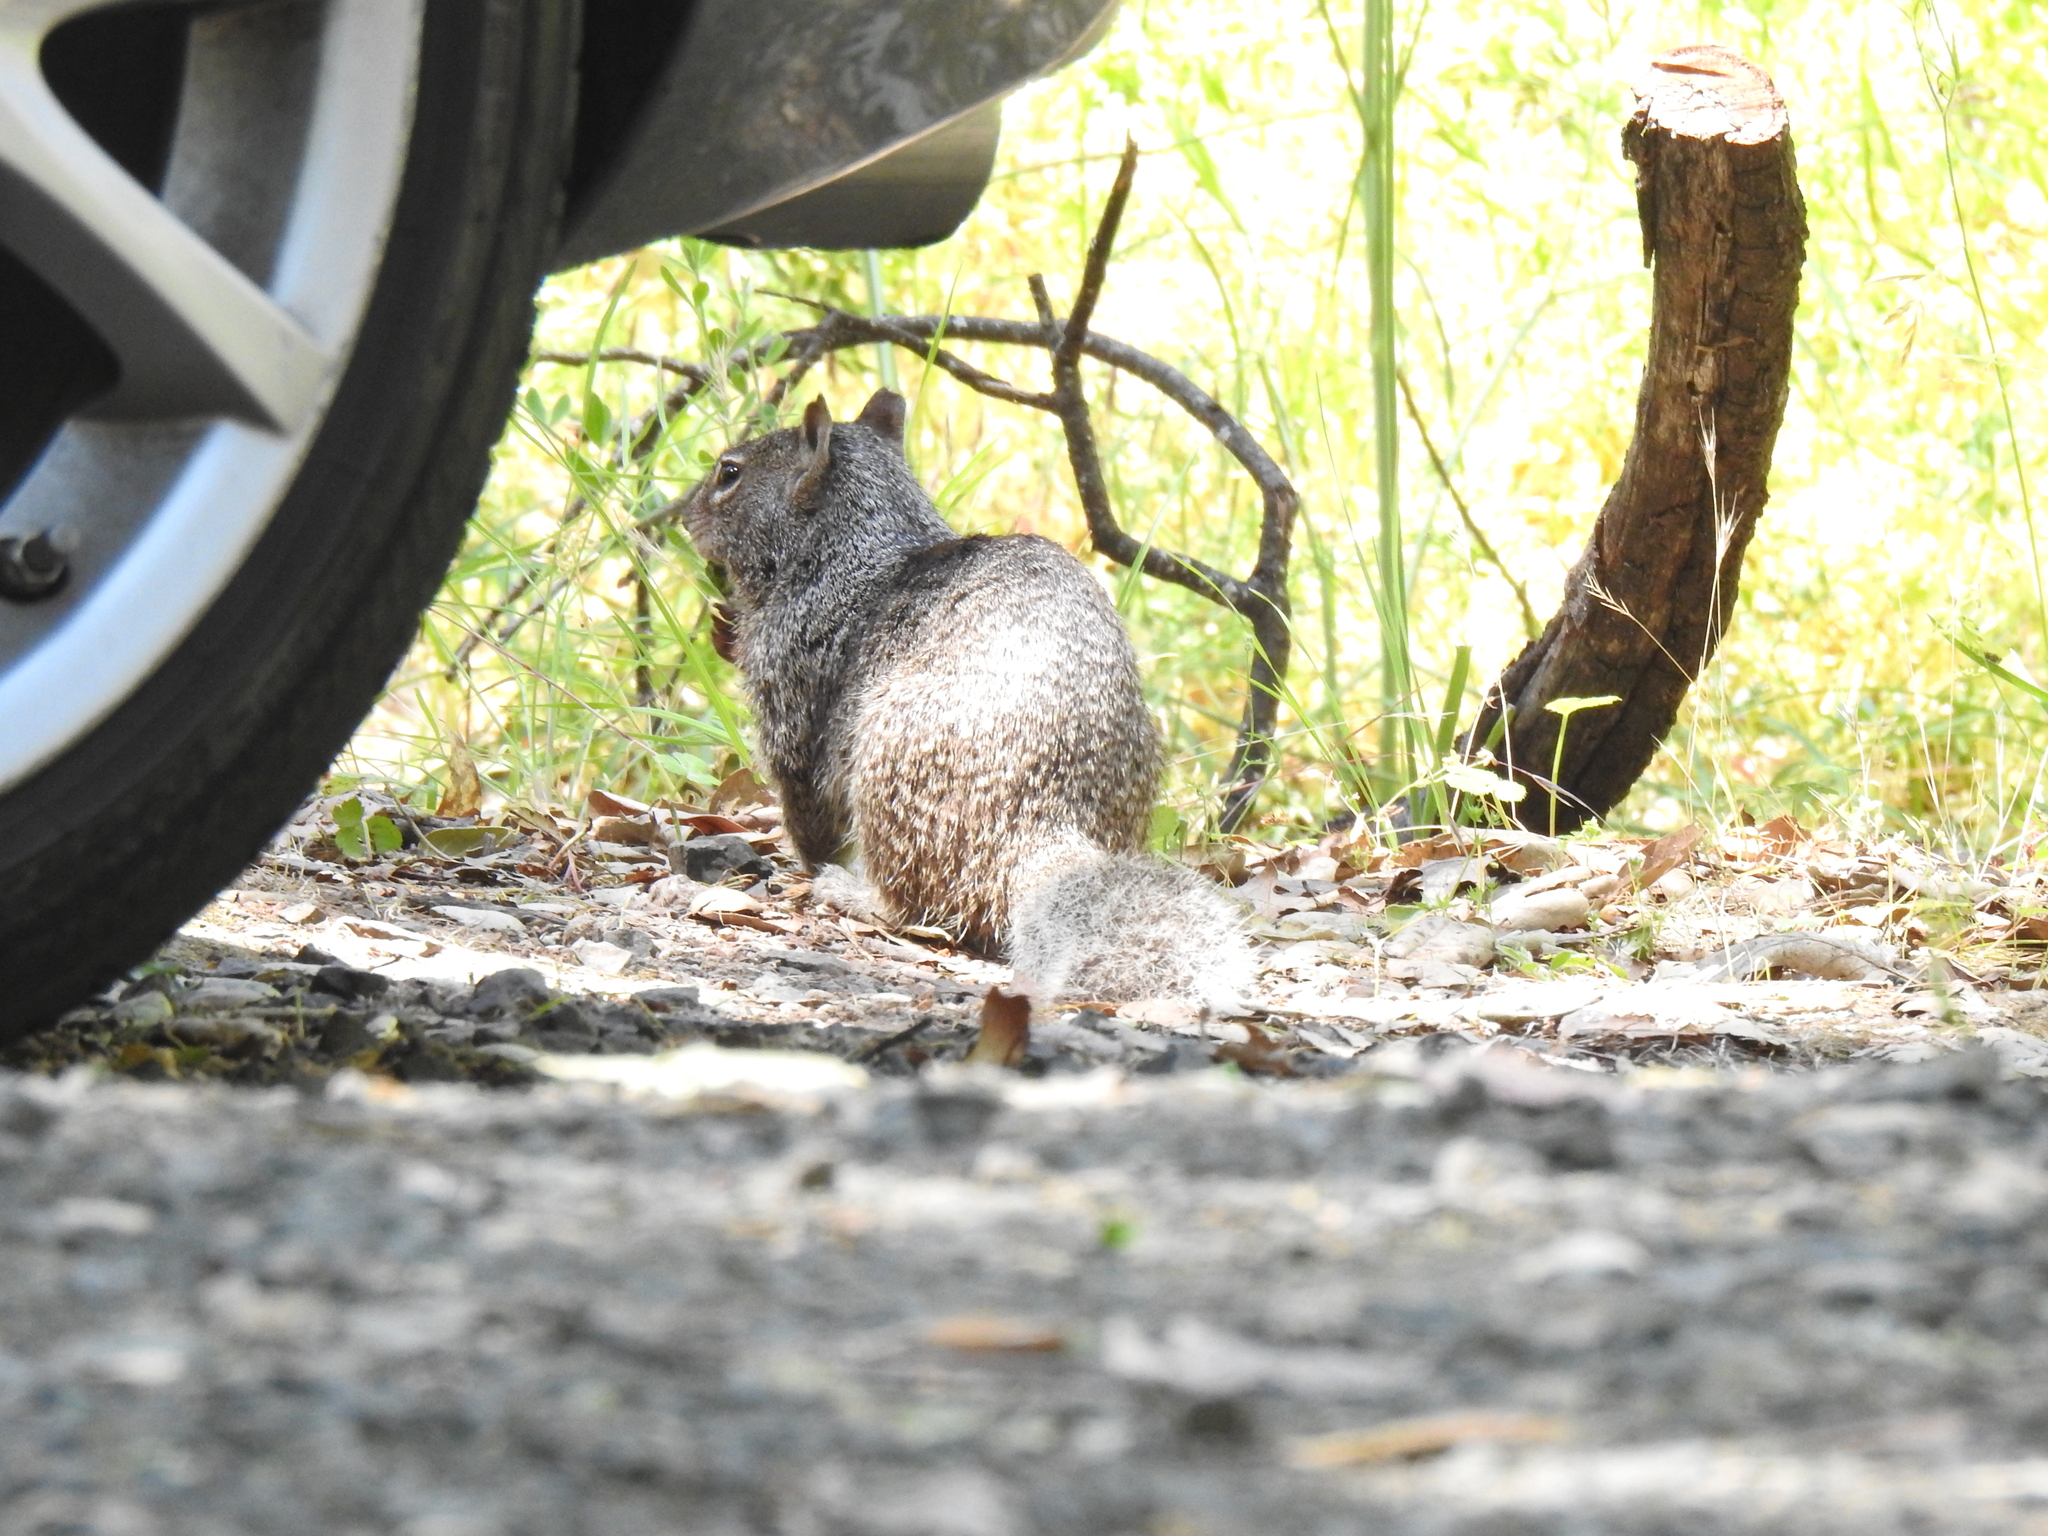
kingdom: Animalia
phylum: Chordata
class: Mammalia
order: Rodentia
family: Sciuridae
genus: Otospermophilus
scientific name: Otospermophilus beecheyi
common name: California ground squirrel
